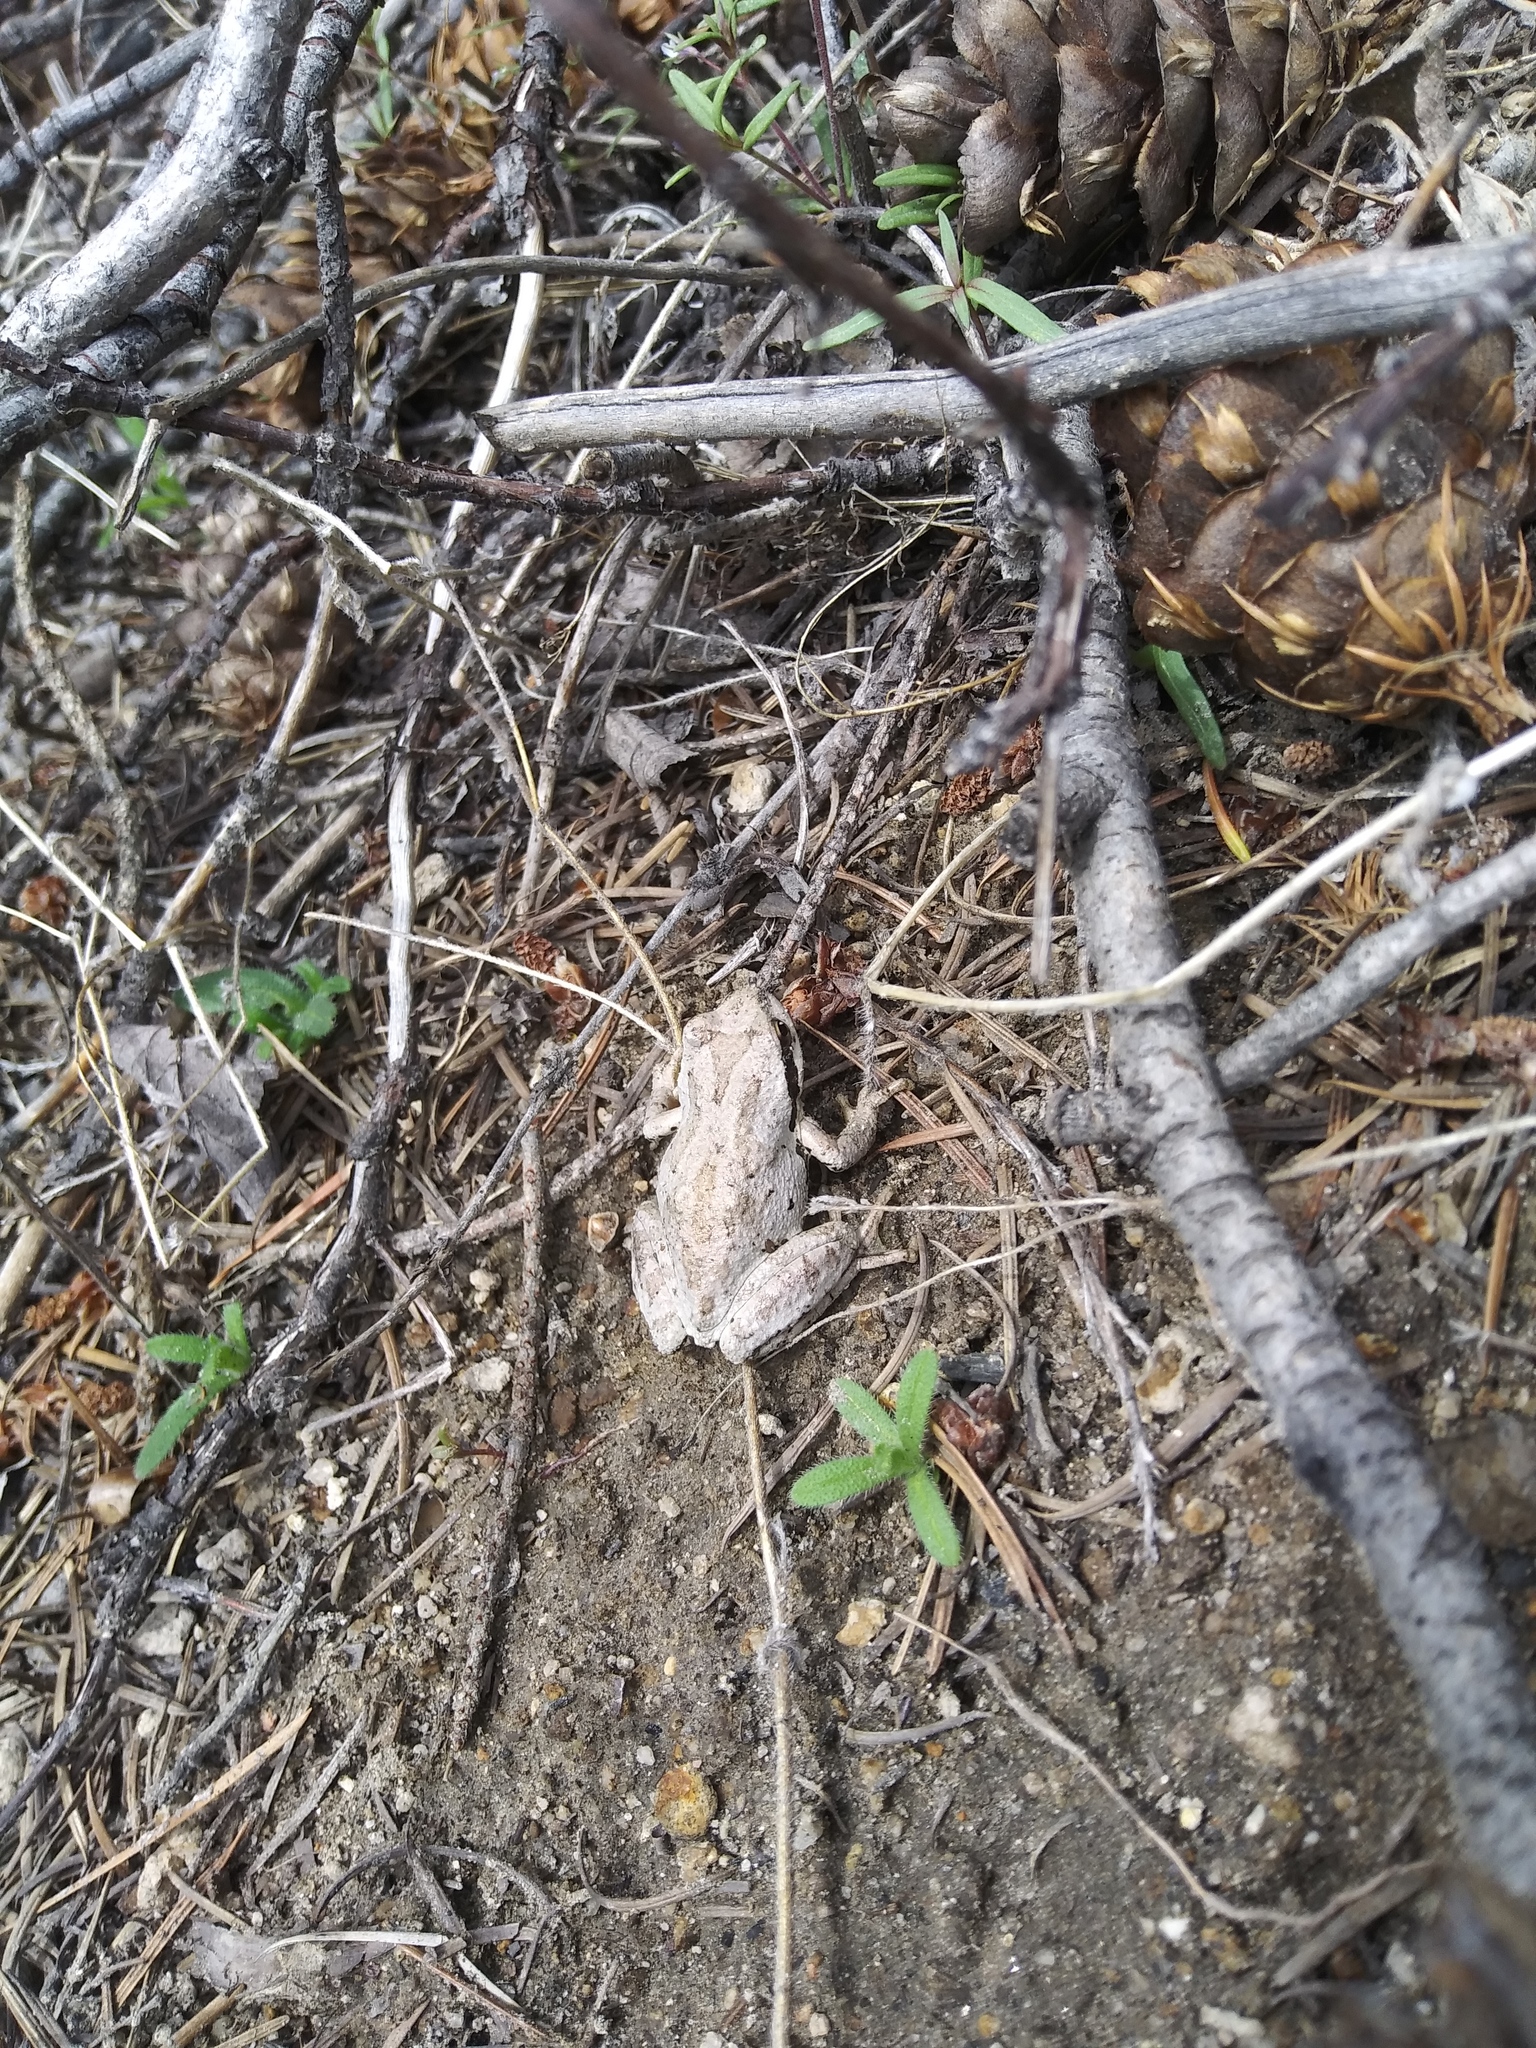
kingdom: Animalia
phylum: Chordata
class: Amphibia
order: Anura
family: Hylidae
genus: Pseudacris
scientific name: Pseudacris regilla
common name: Pacific chorus frog
